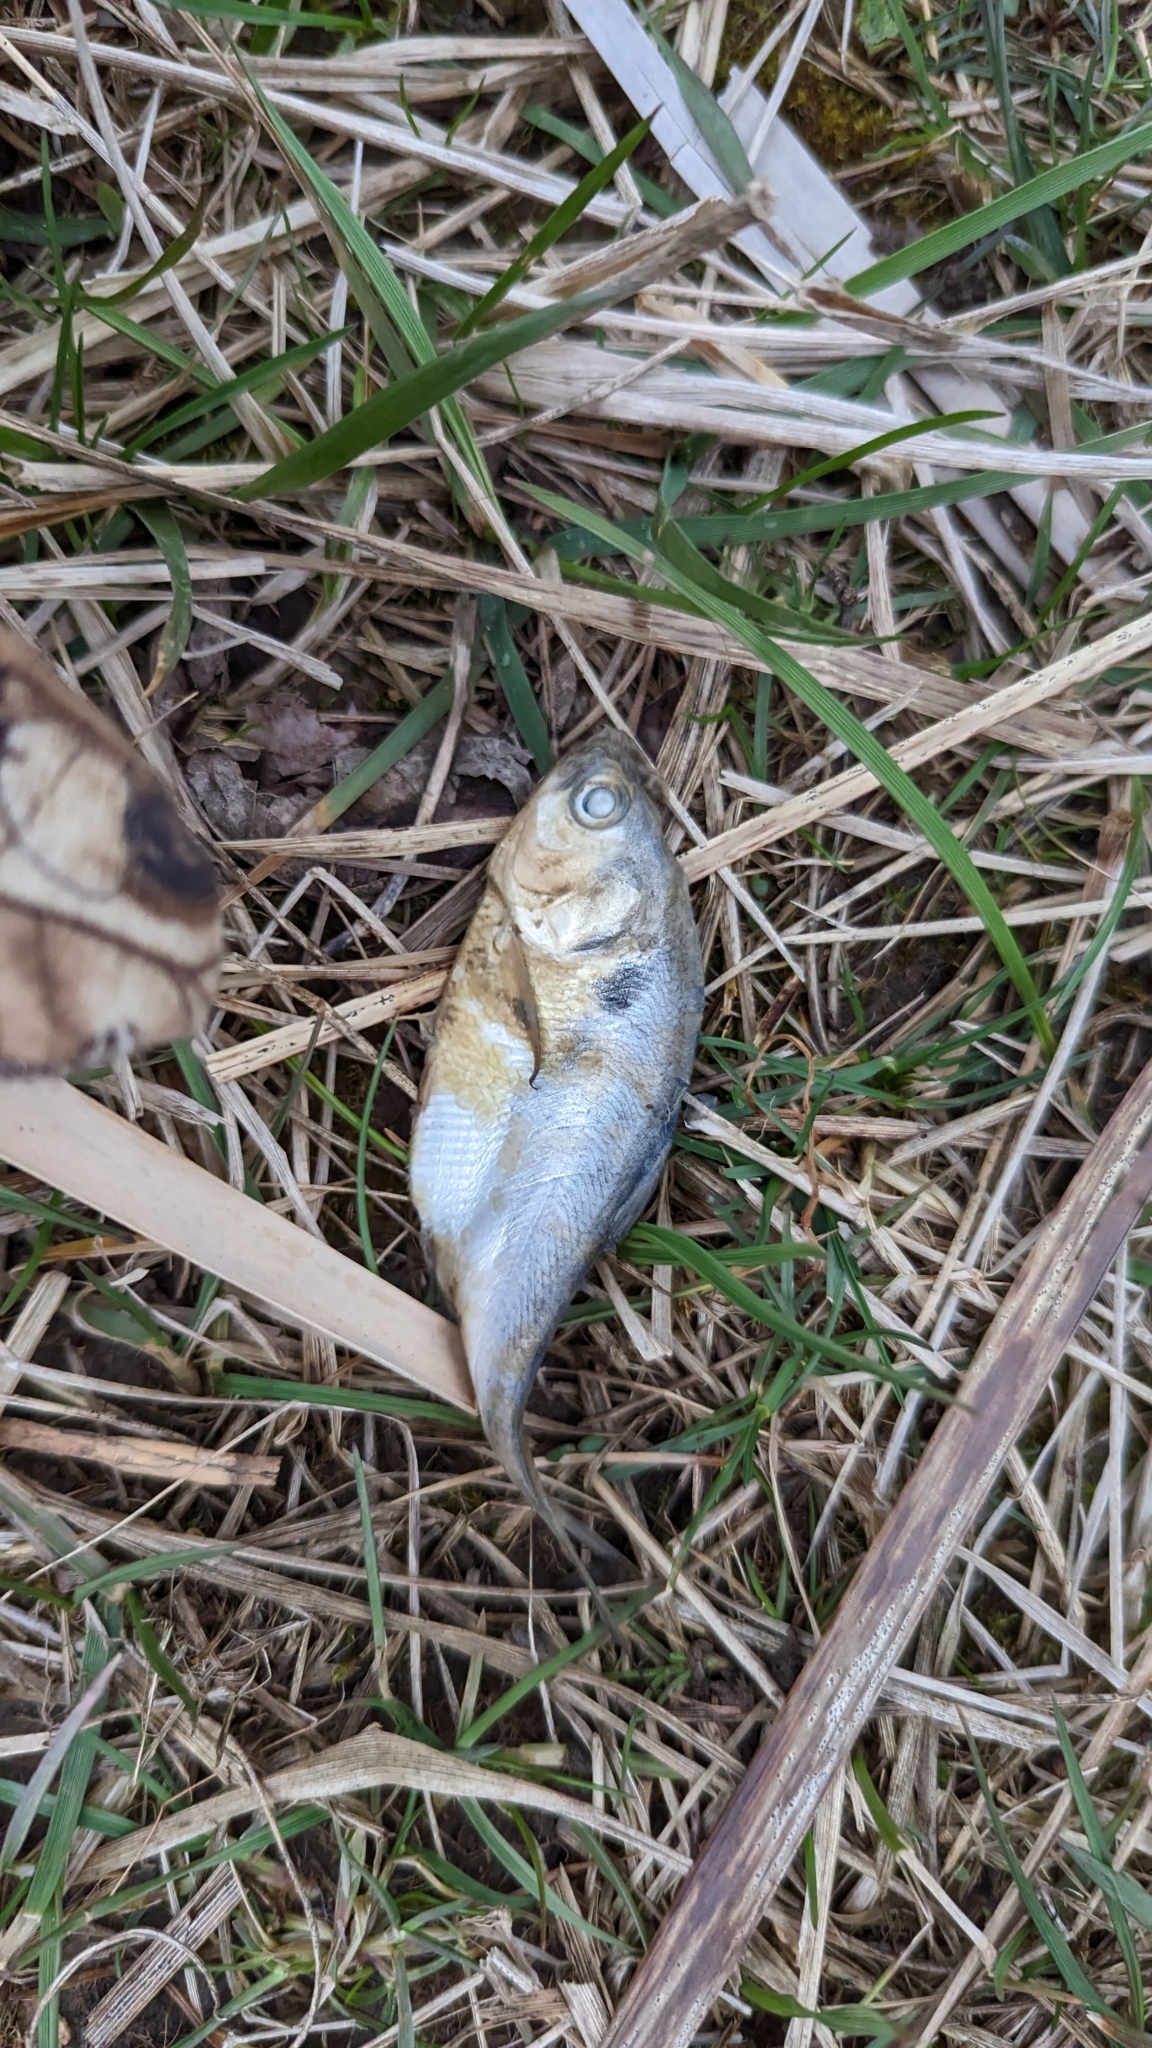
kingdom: Animalia
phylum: Chordata
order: Clupeiformes
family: Clupeidae
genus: Dorosoma
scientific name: Dorosoma cepedianum
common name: Gizzard shad
